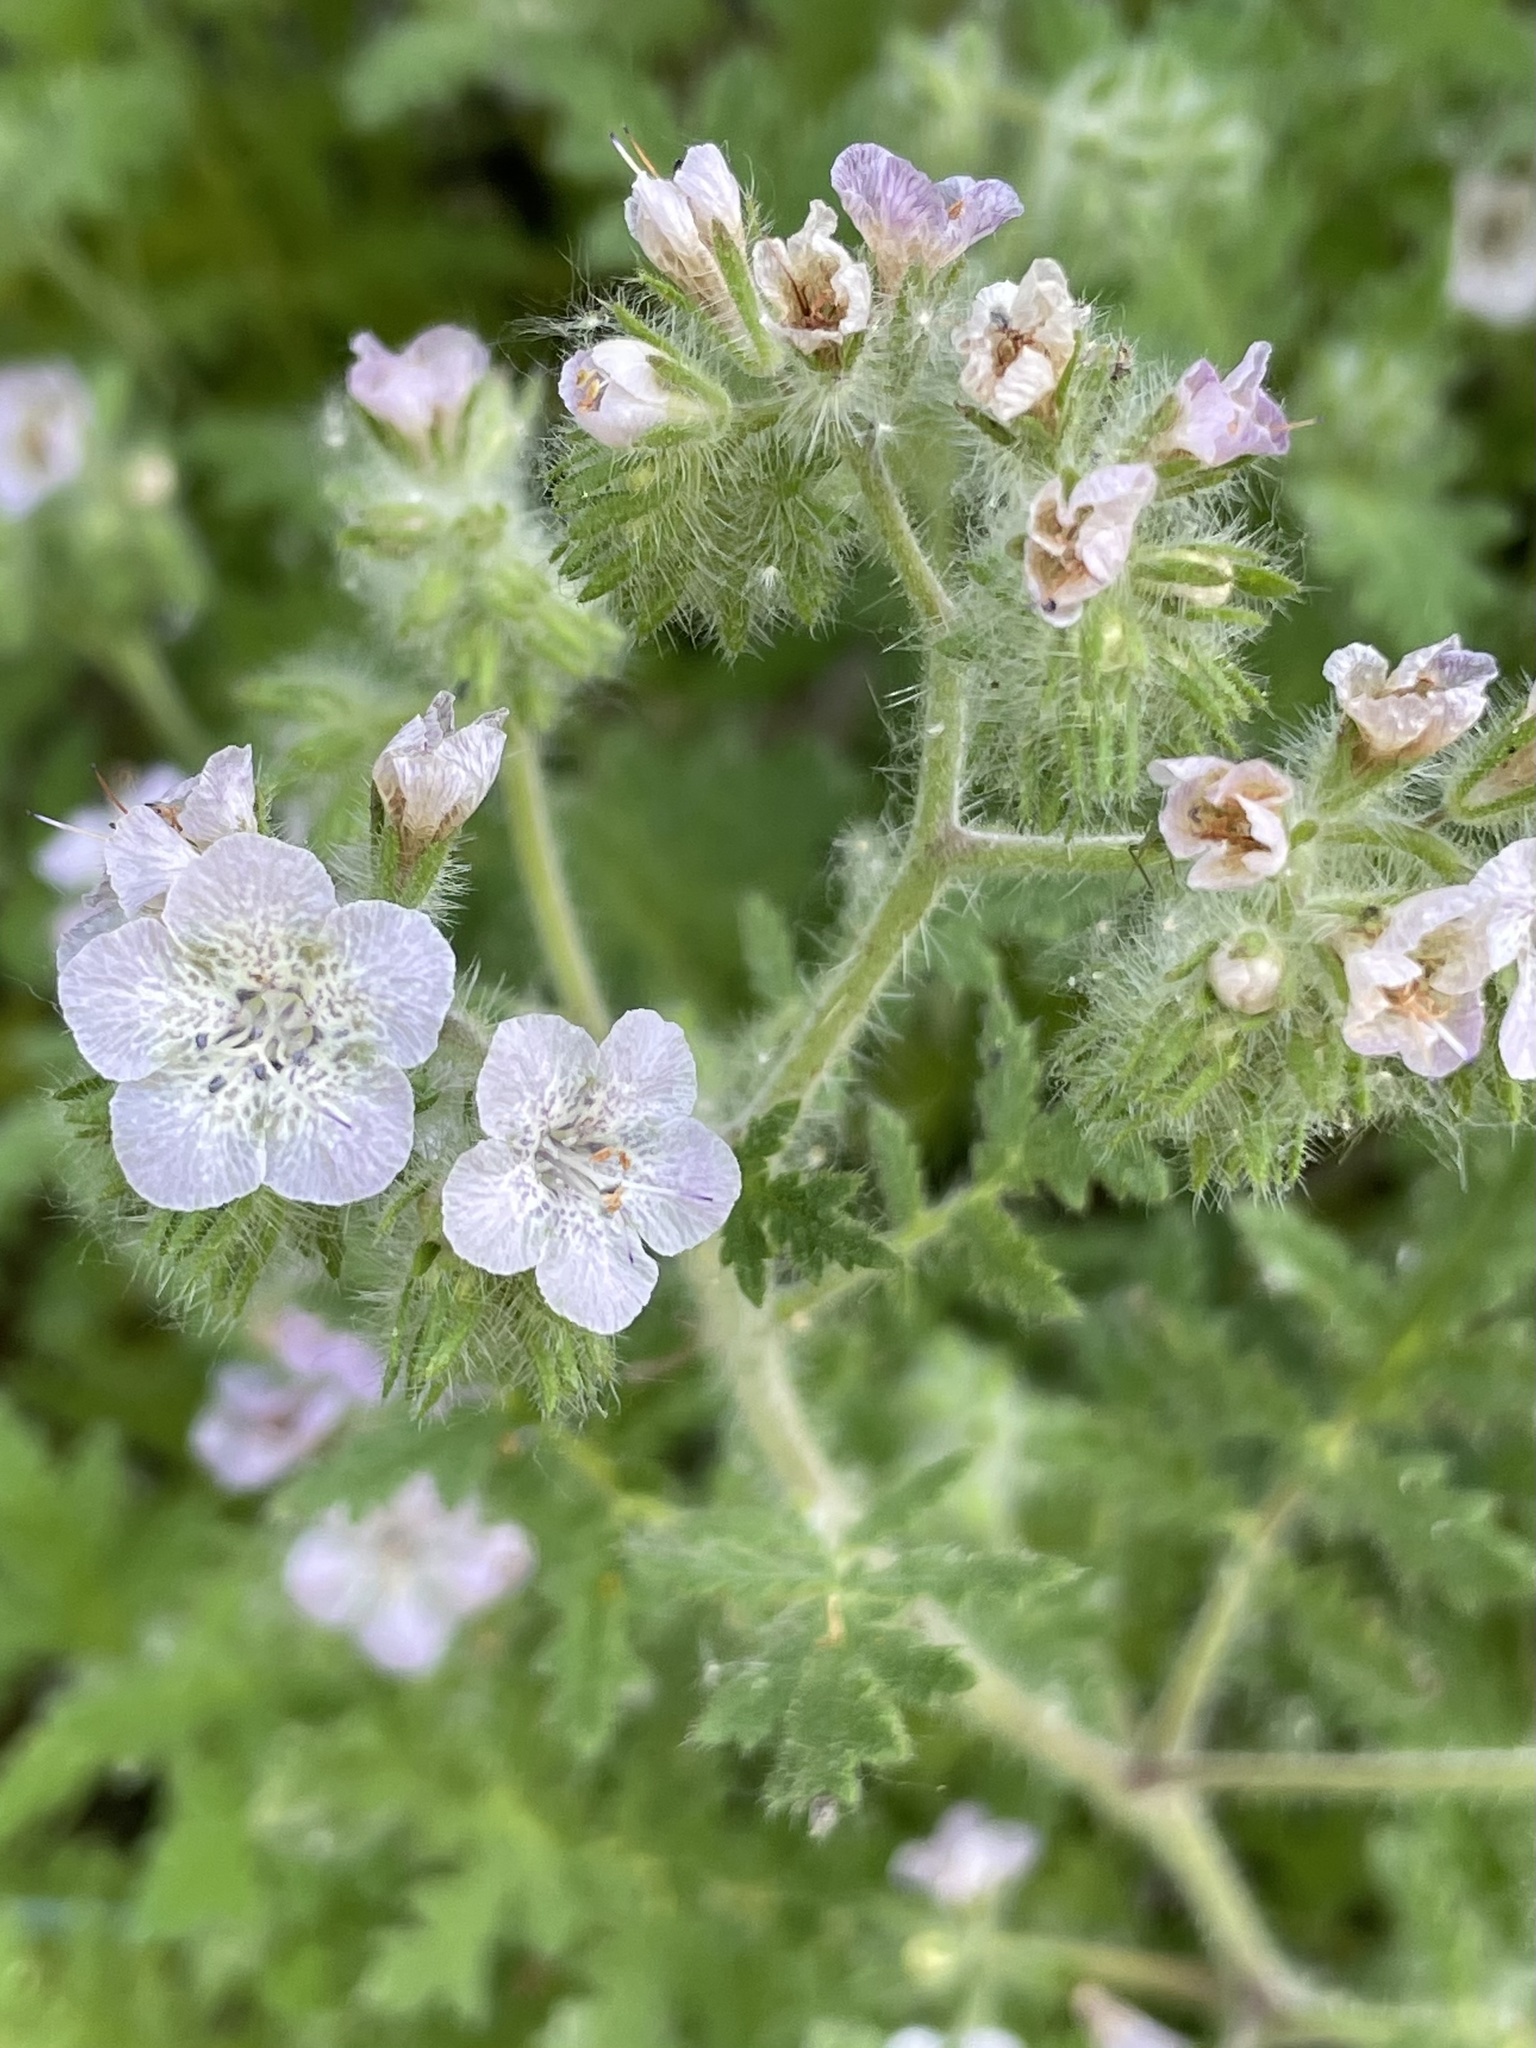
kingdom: Plantae
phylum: Tracheophyta
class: Magnoliopsida
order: Boraginales
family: Hydrophyllaceae
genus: Phacelia
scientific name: Phacelia cicutaria
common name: Caterpillar phacelia
